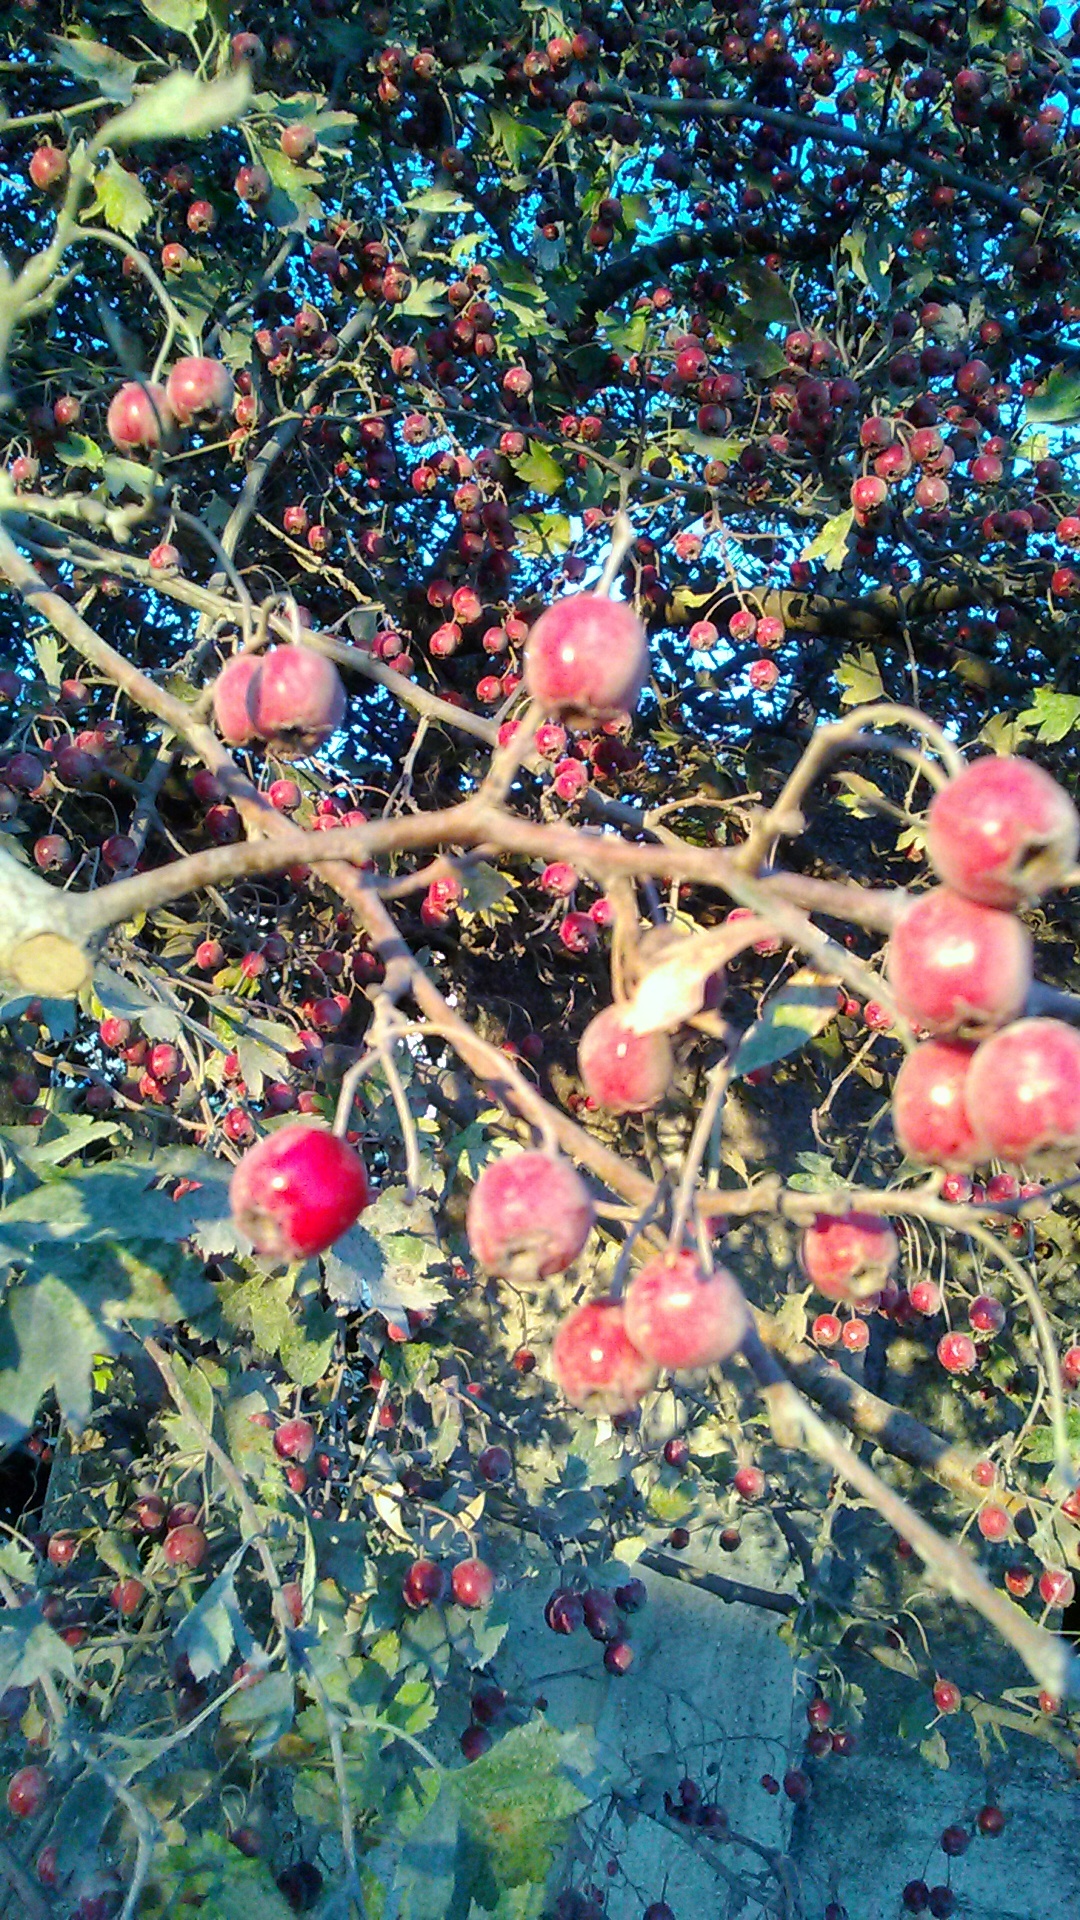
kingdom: Plantae
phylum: Tracheophyta
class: Magnoliopsida
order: Rosales
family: Rosaceae
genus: Crataegus
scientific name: Crataegus monogyna
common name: Hawthorn
